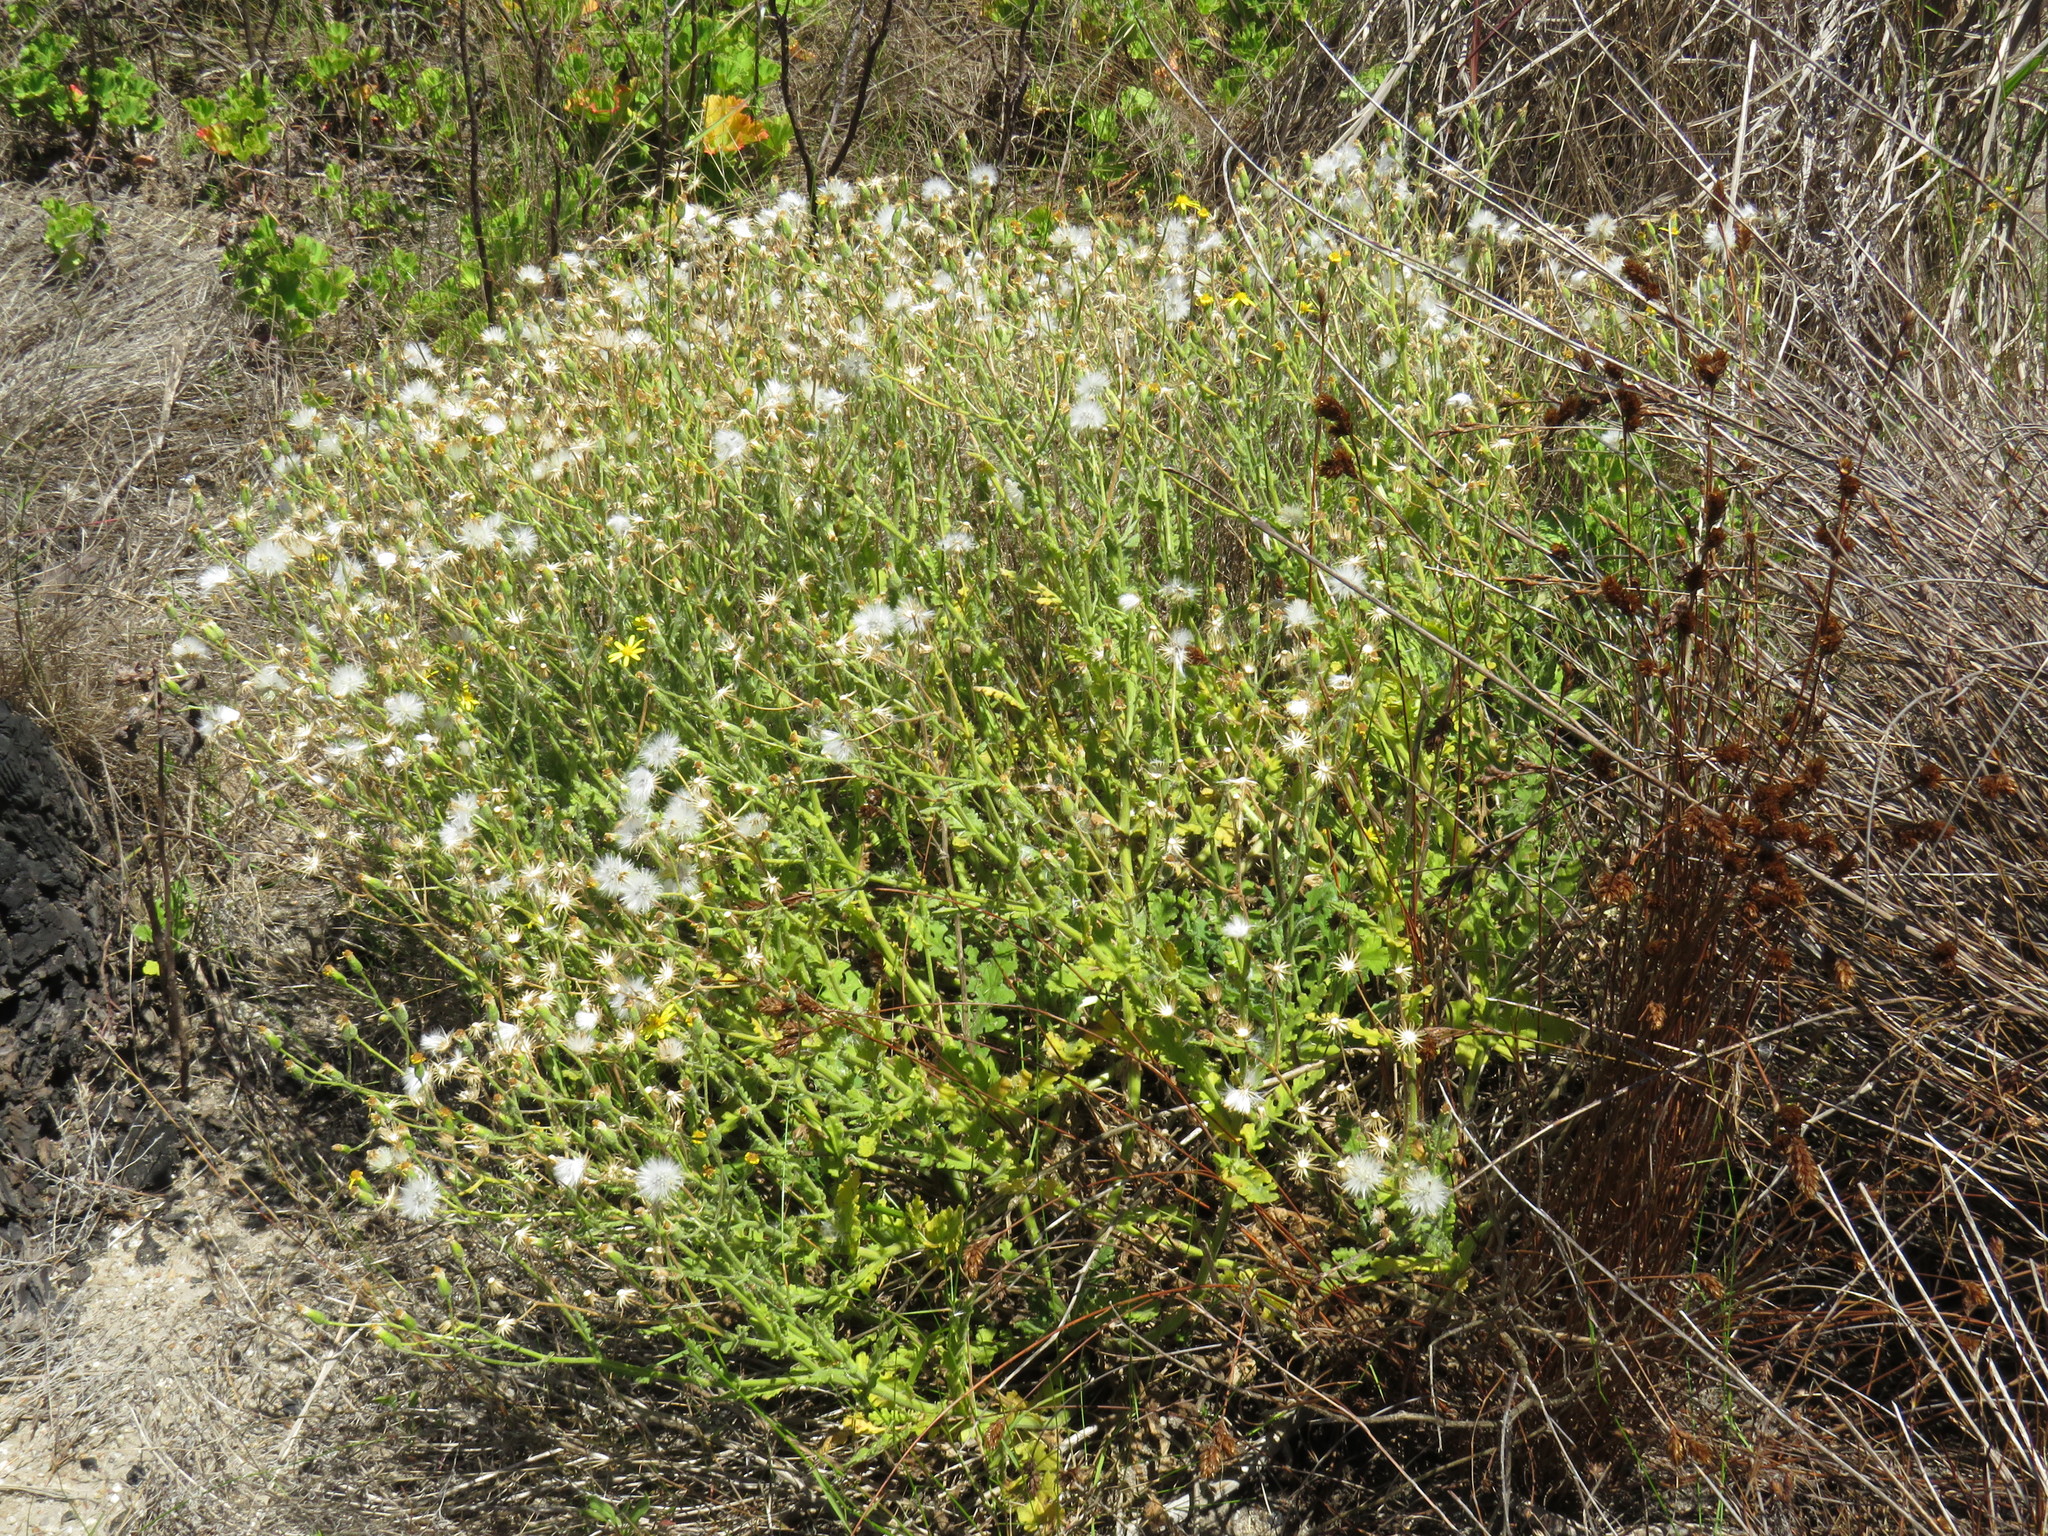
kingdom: Plantae
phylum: Tracheophyta
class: Magnoliopsida
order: Asterales
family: Asteraceae
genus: Senecio
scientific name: Senecio hastatus
